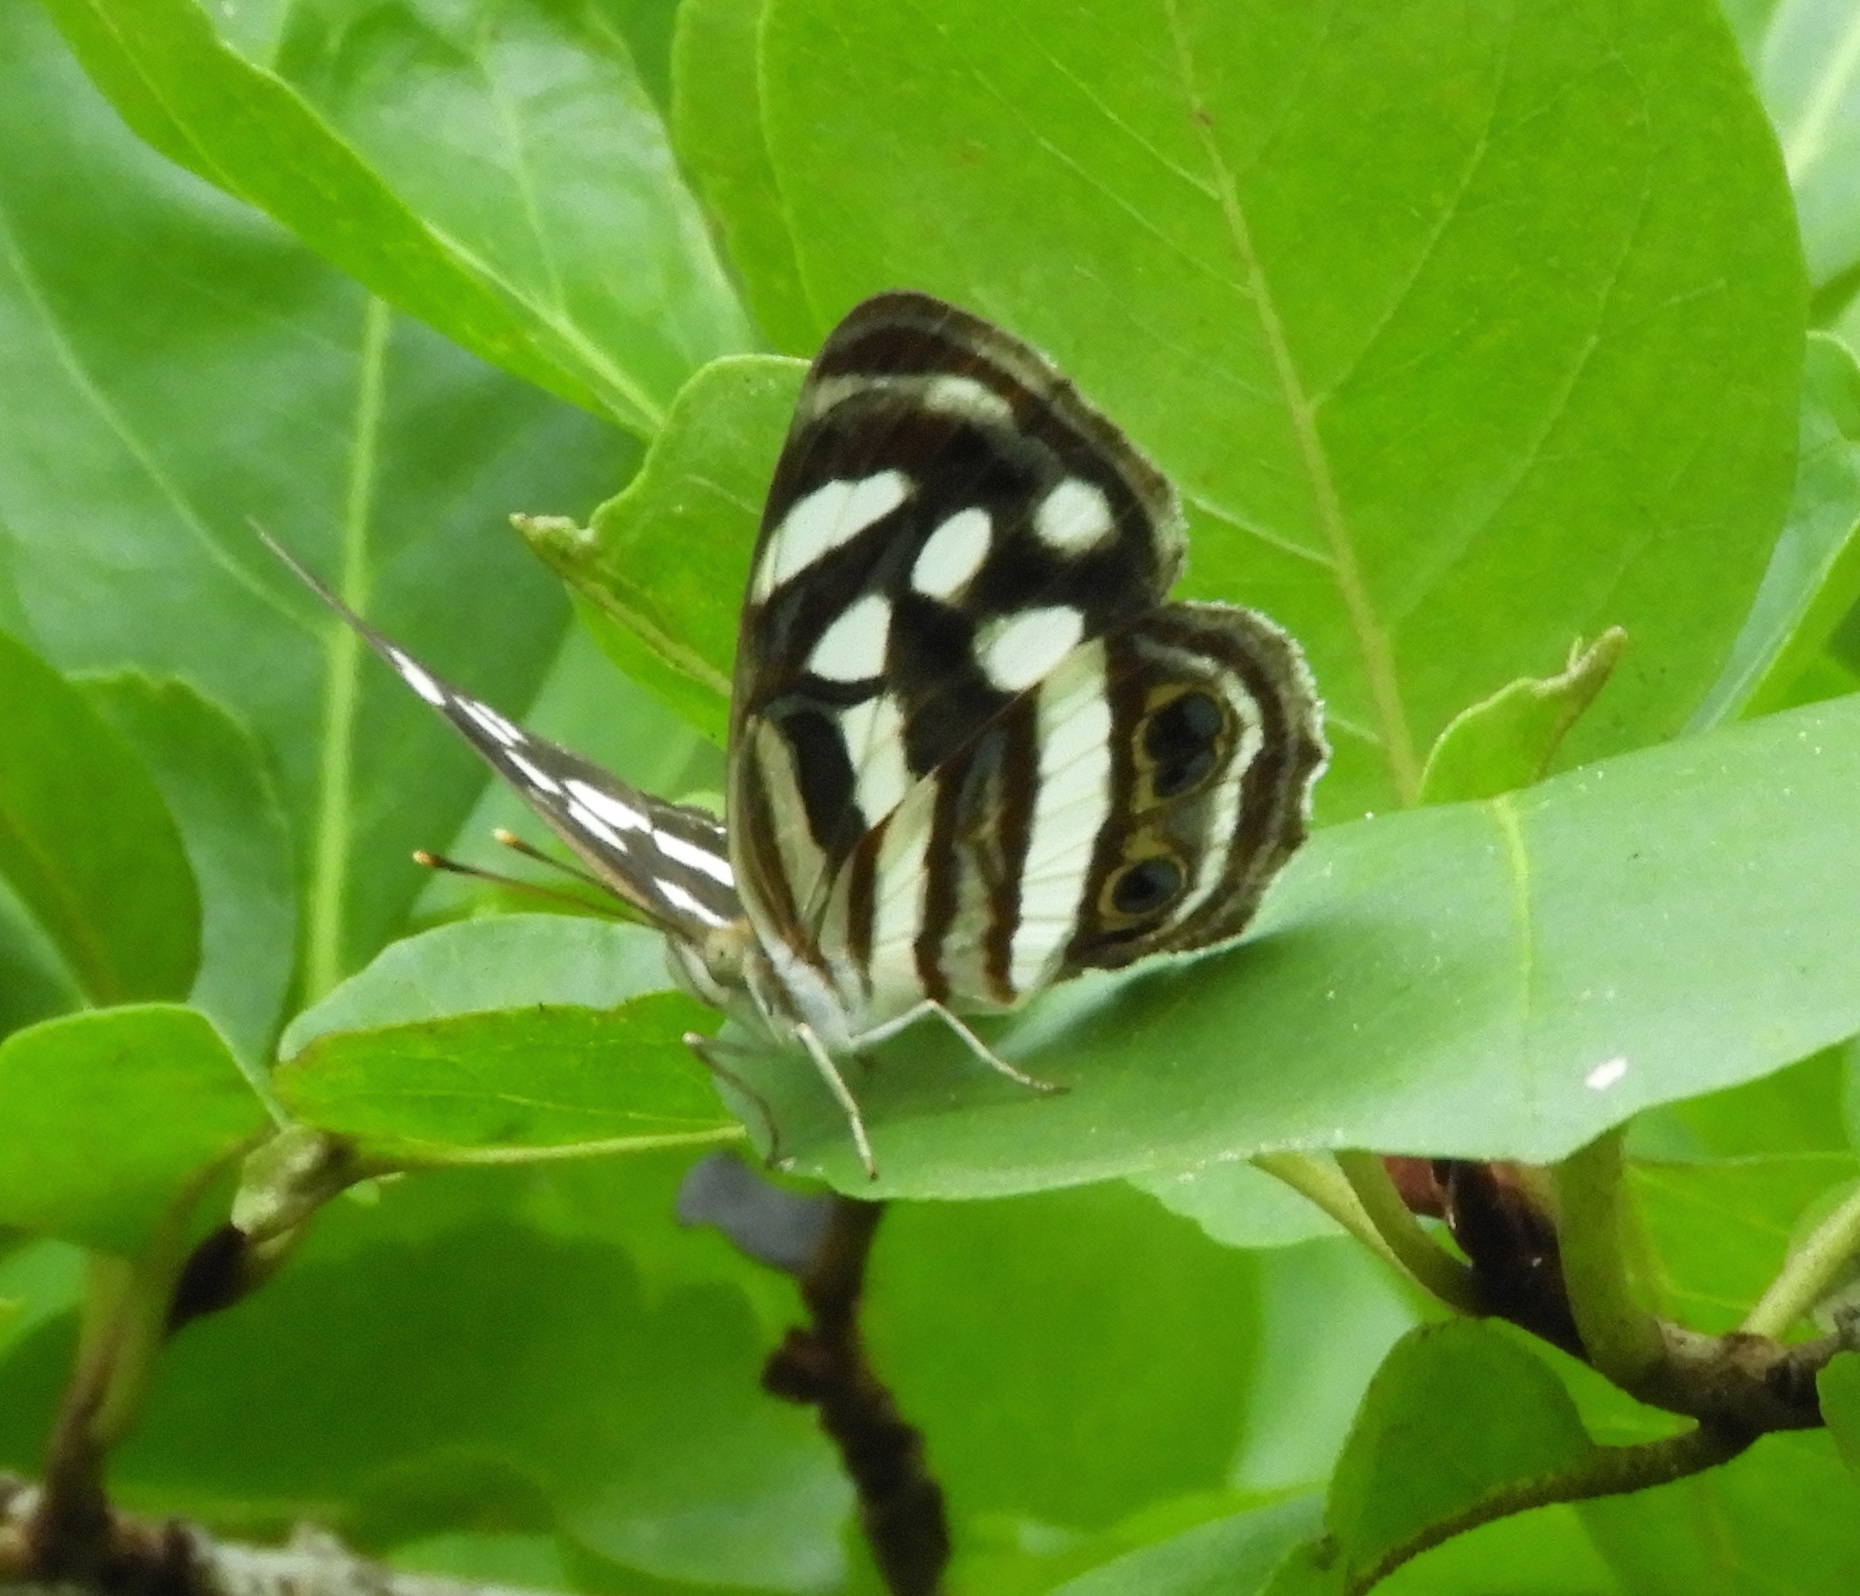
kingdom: Animalia
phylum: Arthropoda
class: Insecta
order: Lepidoptera
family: Nymphalidae
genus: Dynamine
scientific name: Dynamine mylitta
